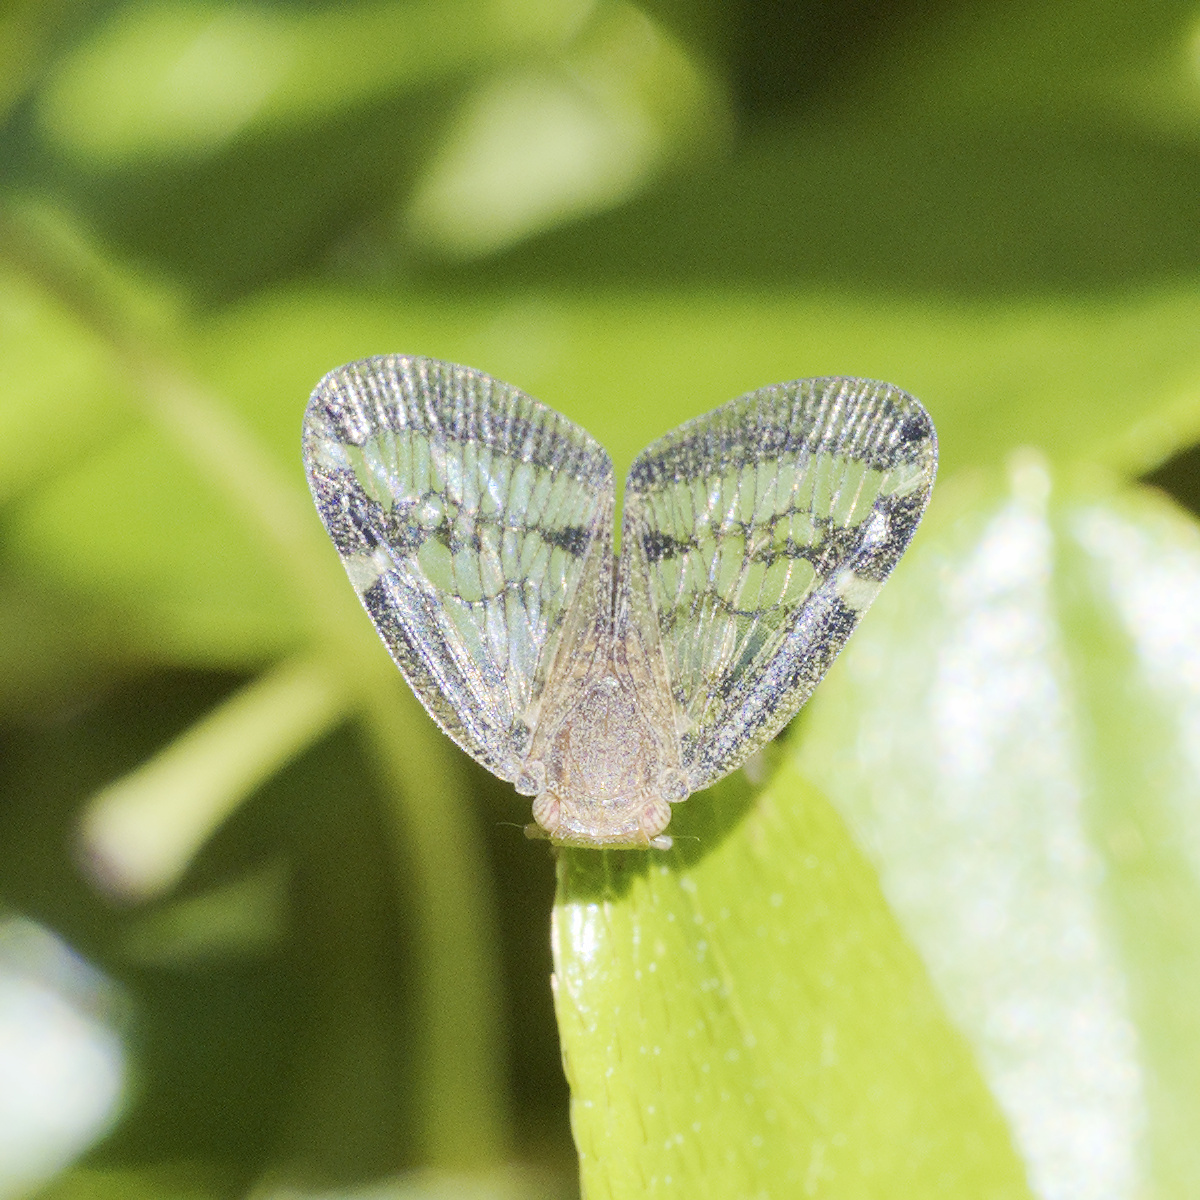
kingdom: Animalia
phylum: Arthropoda
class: Insecta
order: Hemiptera
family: Ricaniidae
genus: Scolypopa
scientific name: Scolypopa australis
